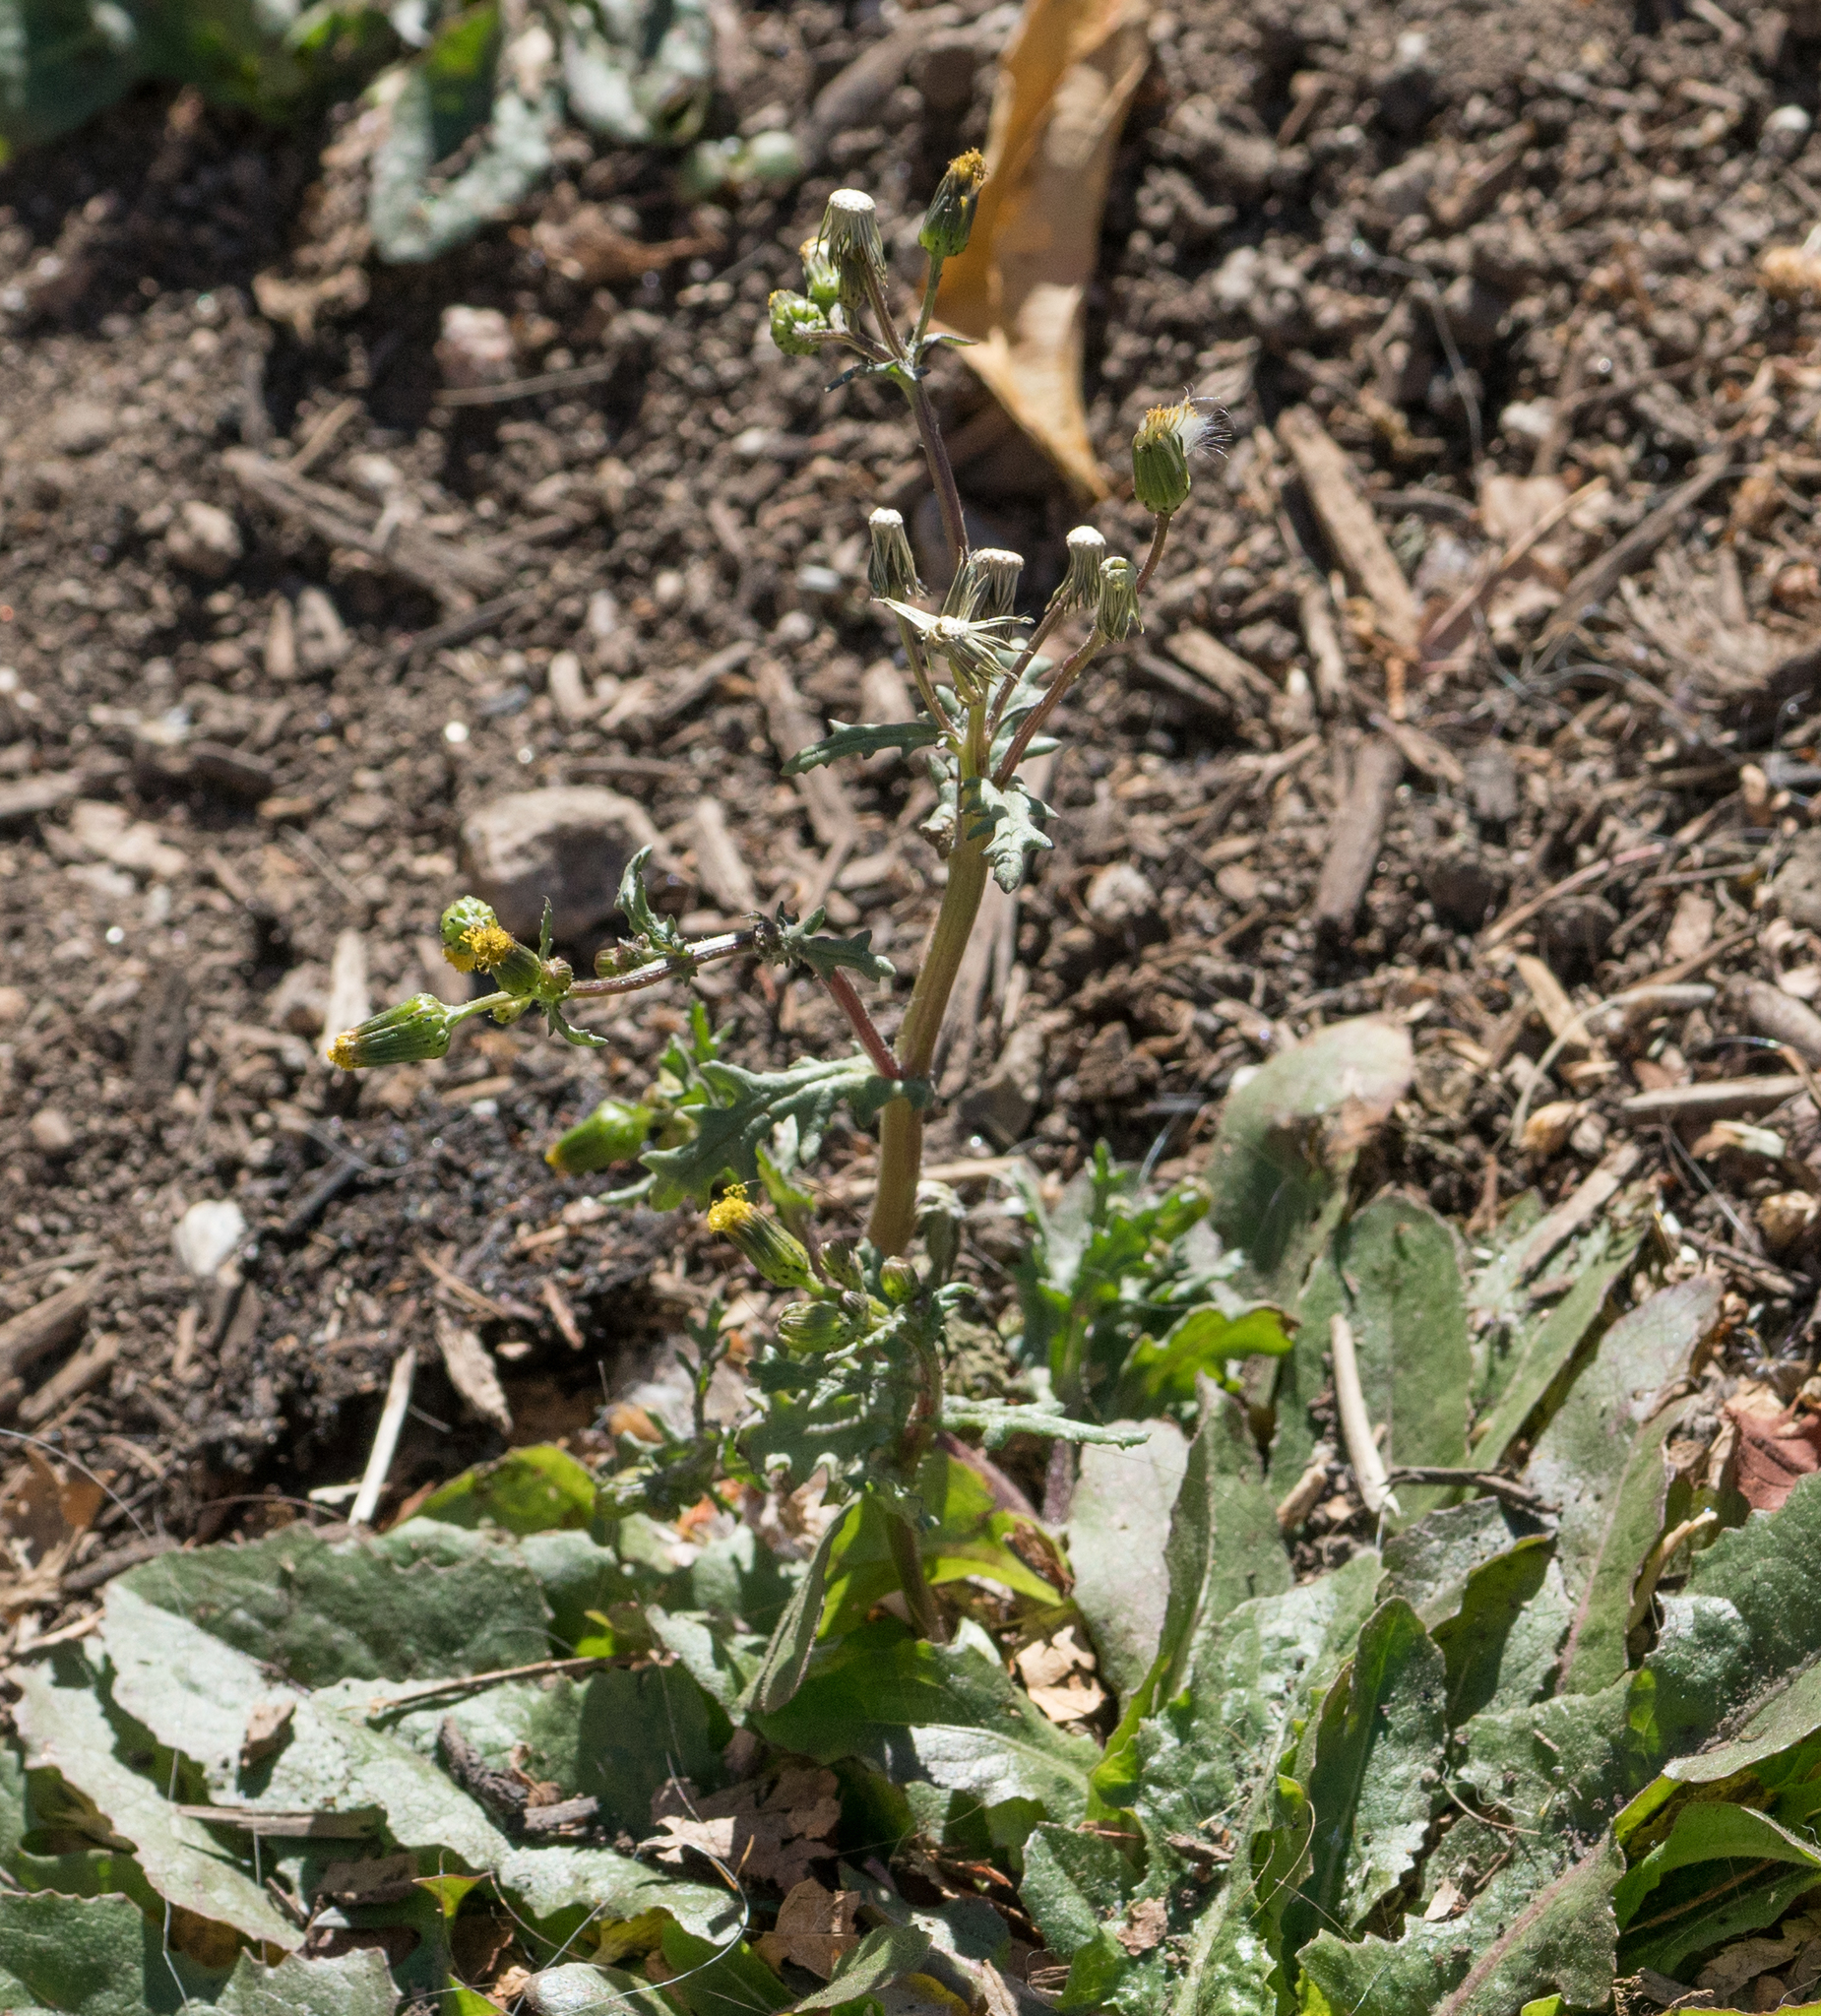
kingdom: Plantae
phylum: Tracheophyta
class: Magnoliopsida
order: Asterales
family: Asteraceae
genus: Senecio
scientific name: Senecio vulgaris
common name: Old-man-in-the-spring
